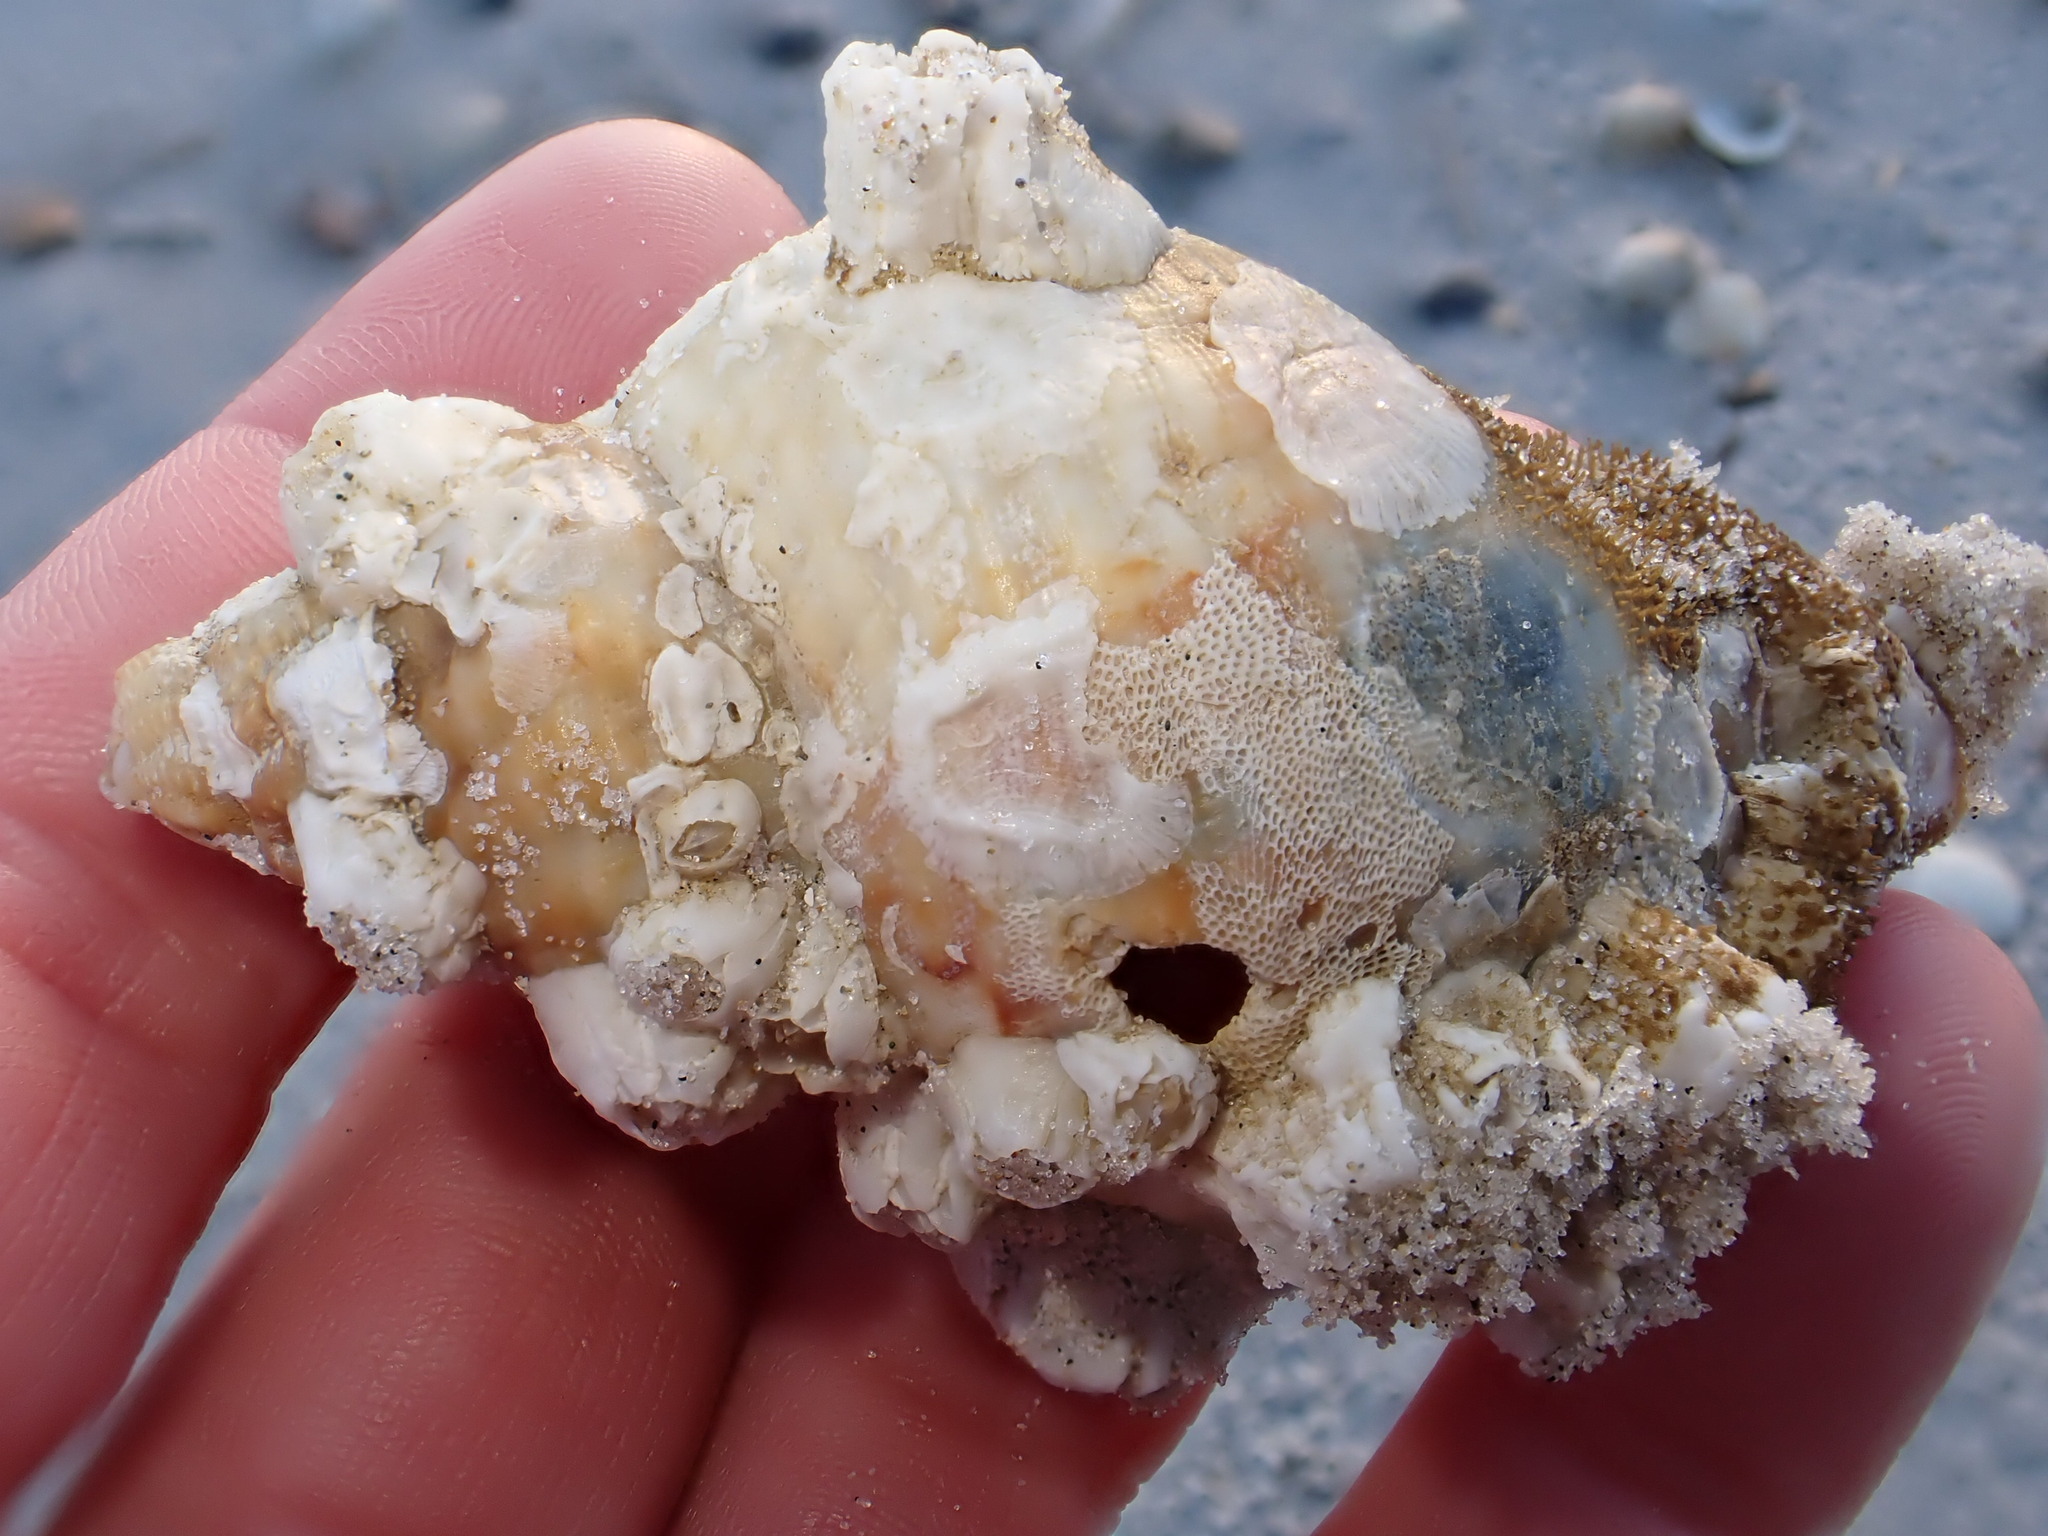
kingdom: Animalia
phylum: Mollusca
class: Gastropoda
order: Neogastropoda
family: Buccinidae
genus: Buccinum
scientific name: Buccinum undatum
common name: Common whelk
